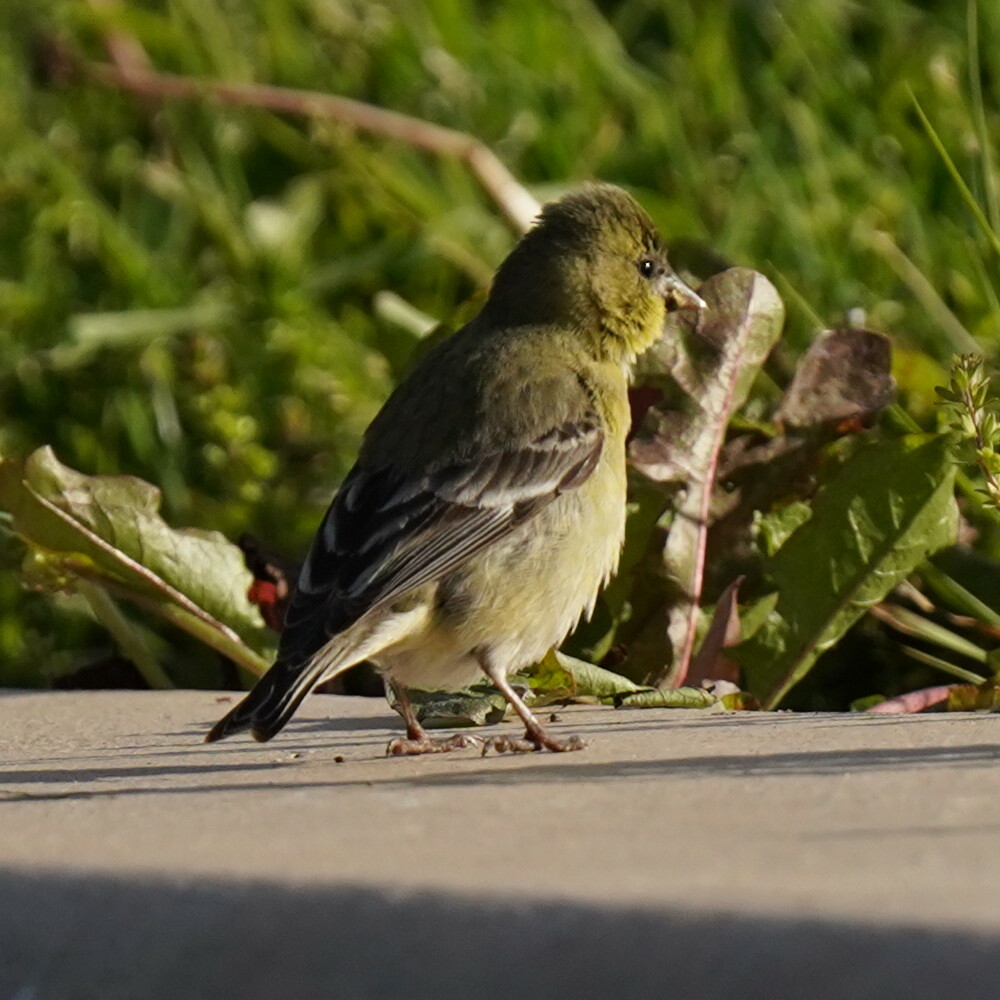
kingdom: Animalia
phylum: Chordata
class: Aves
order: Passeriformes
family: Fringillidae
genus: Spinus
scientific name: Spinus psaltria
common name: Lesser goldfinch
